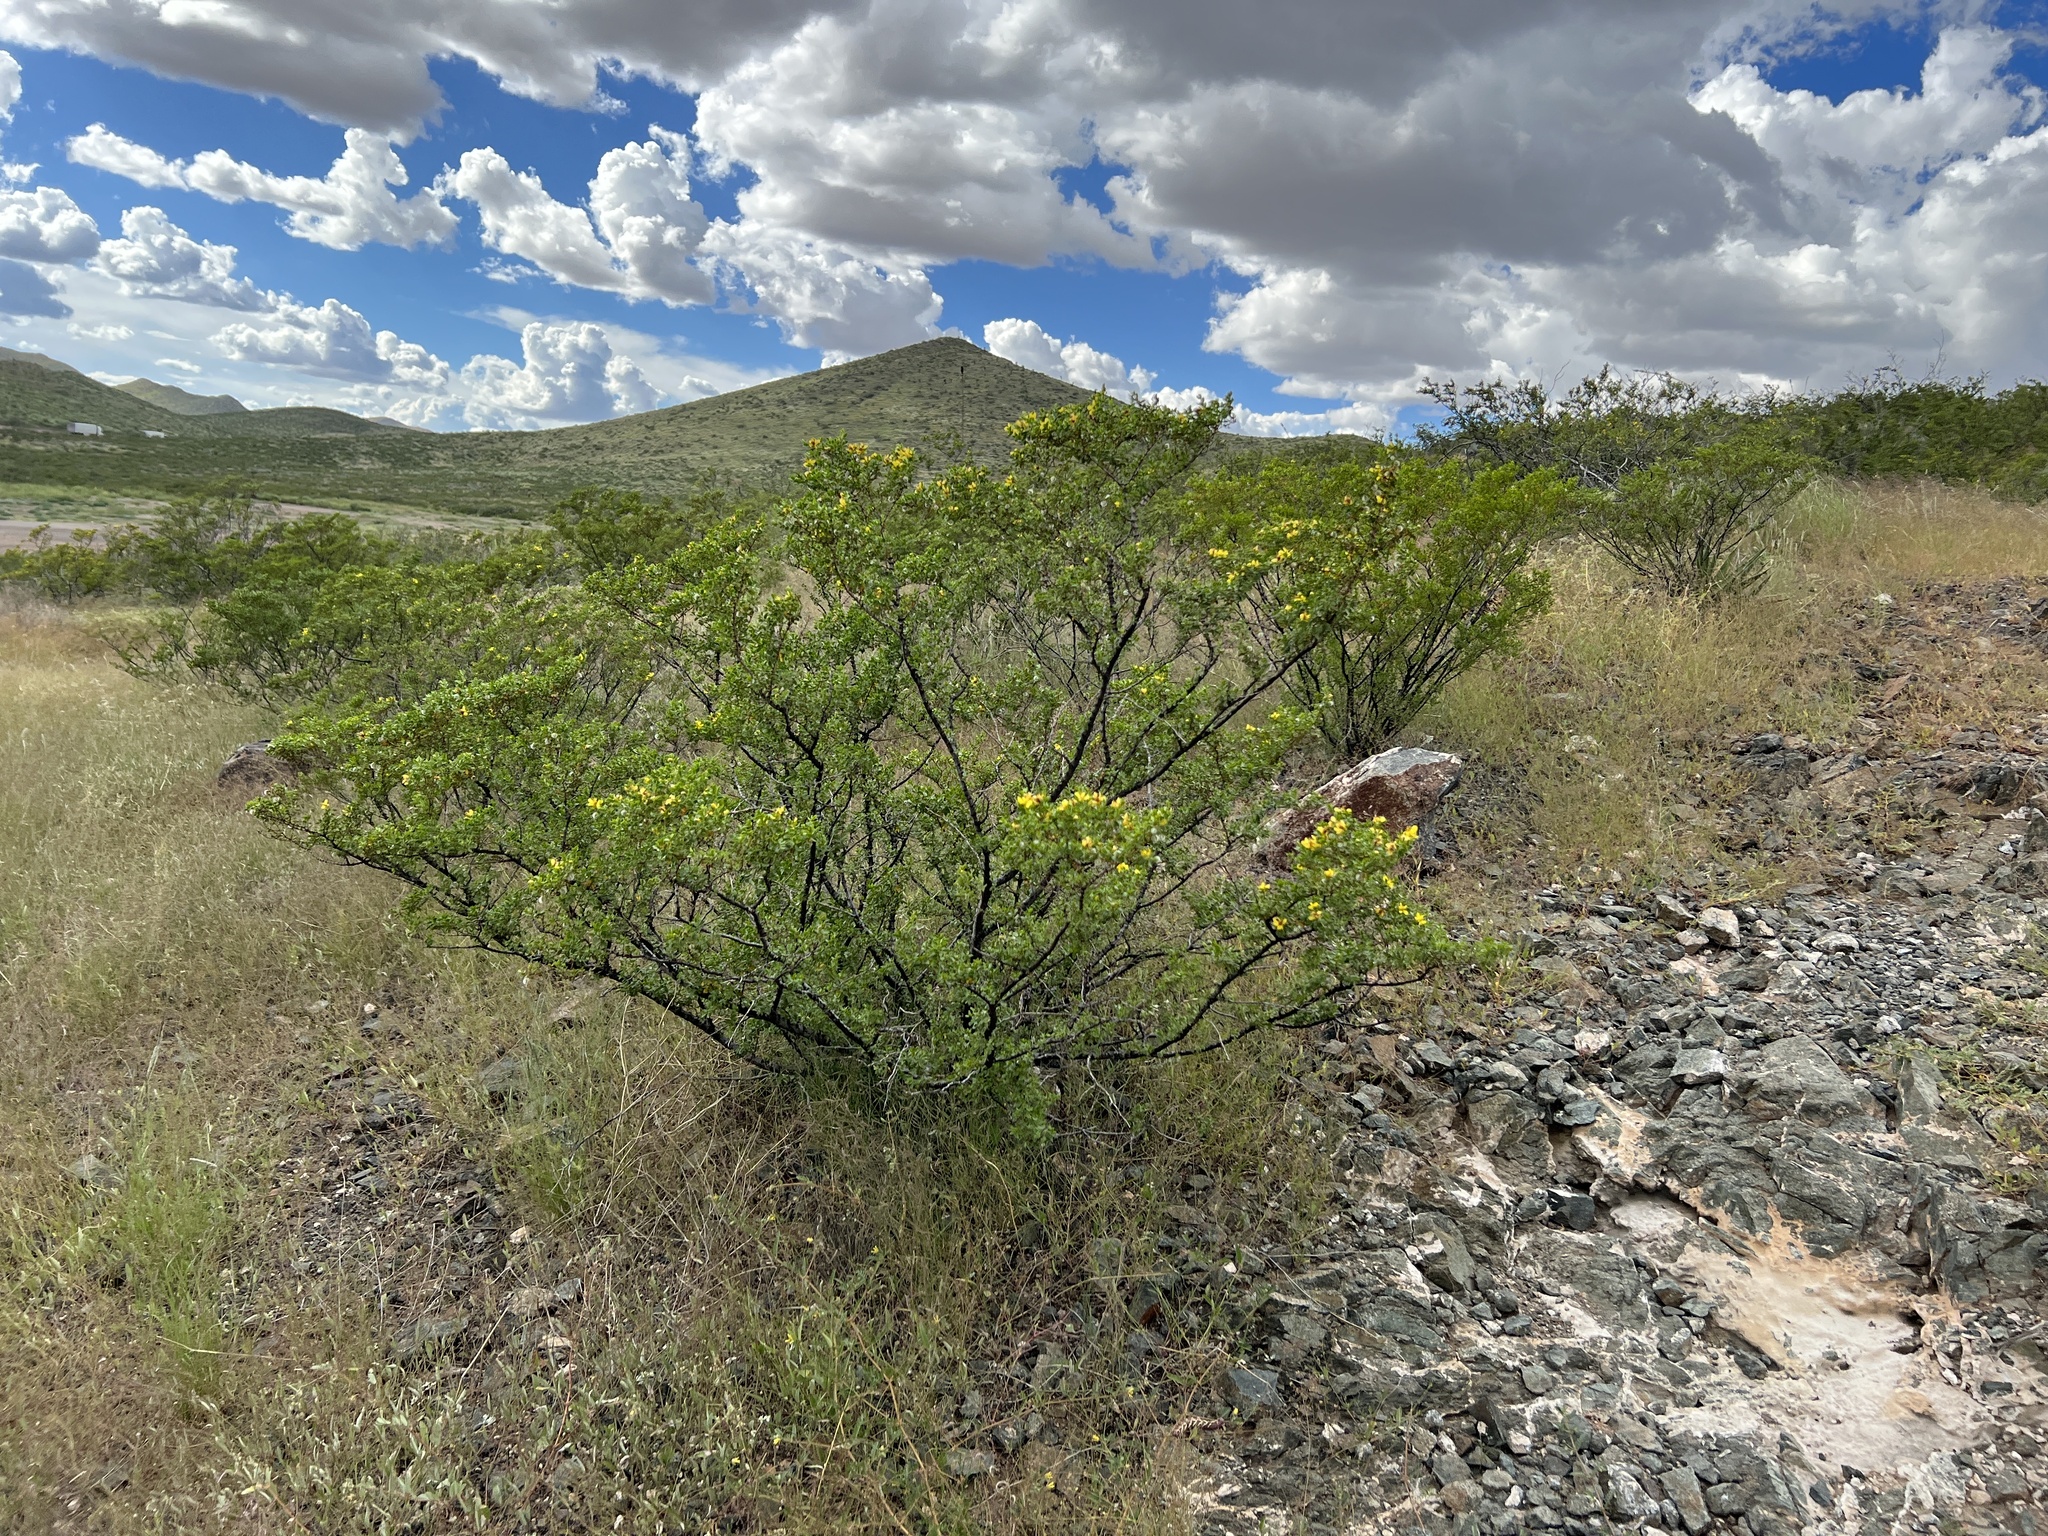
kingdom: Plantae
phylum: Tracheophyta
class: Magnoliopsida
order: Zygophyllales
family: Zygophyllaceae
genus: Larrea
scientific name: Larrea tridentata
